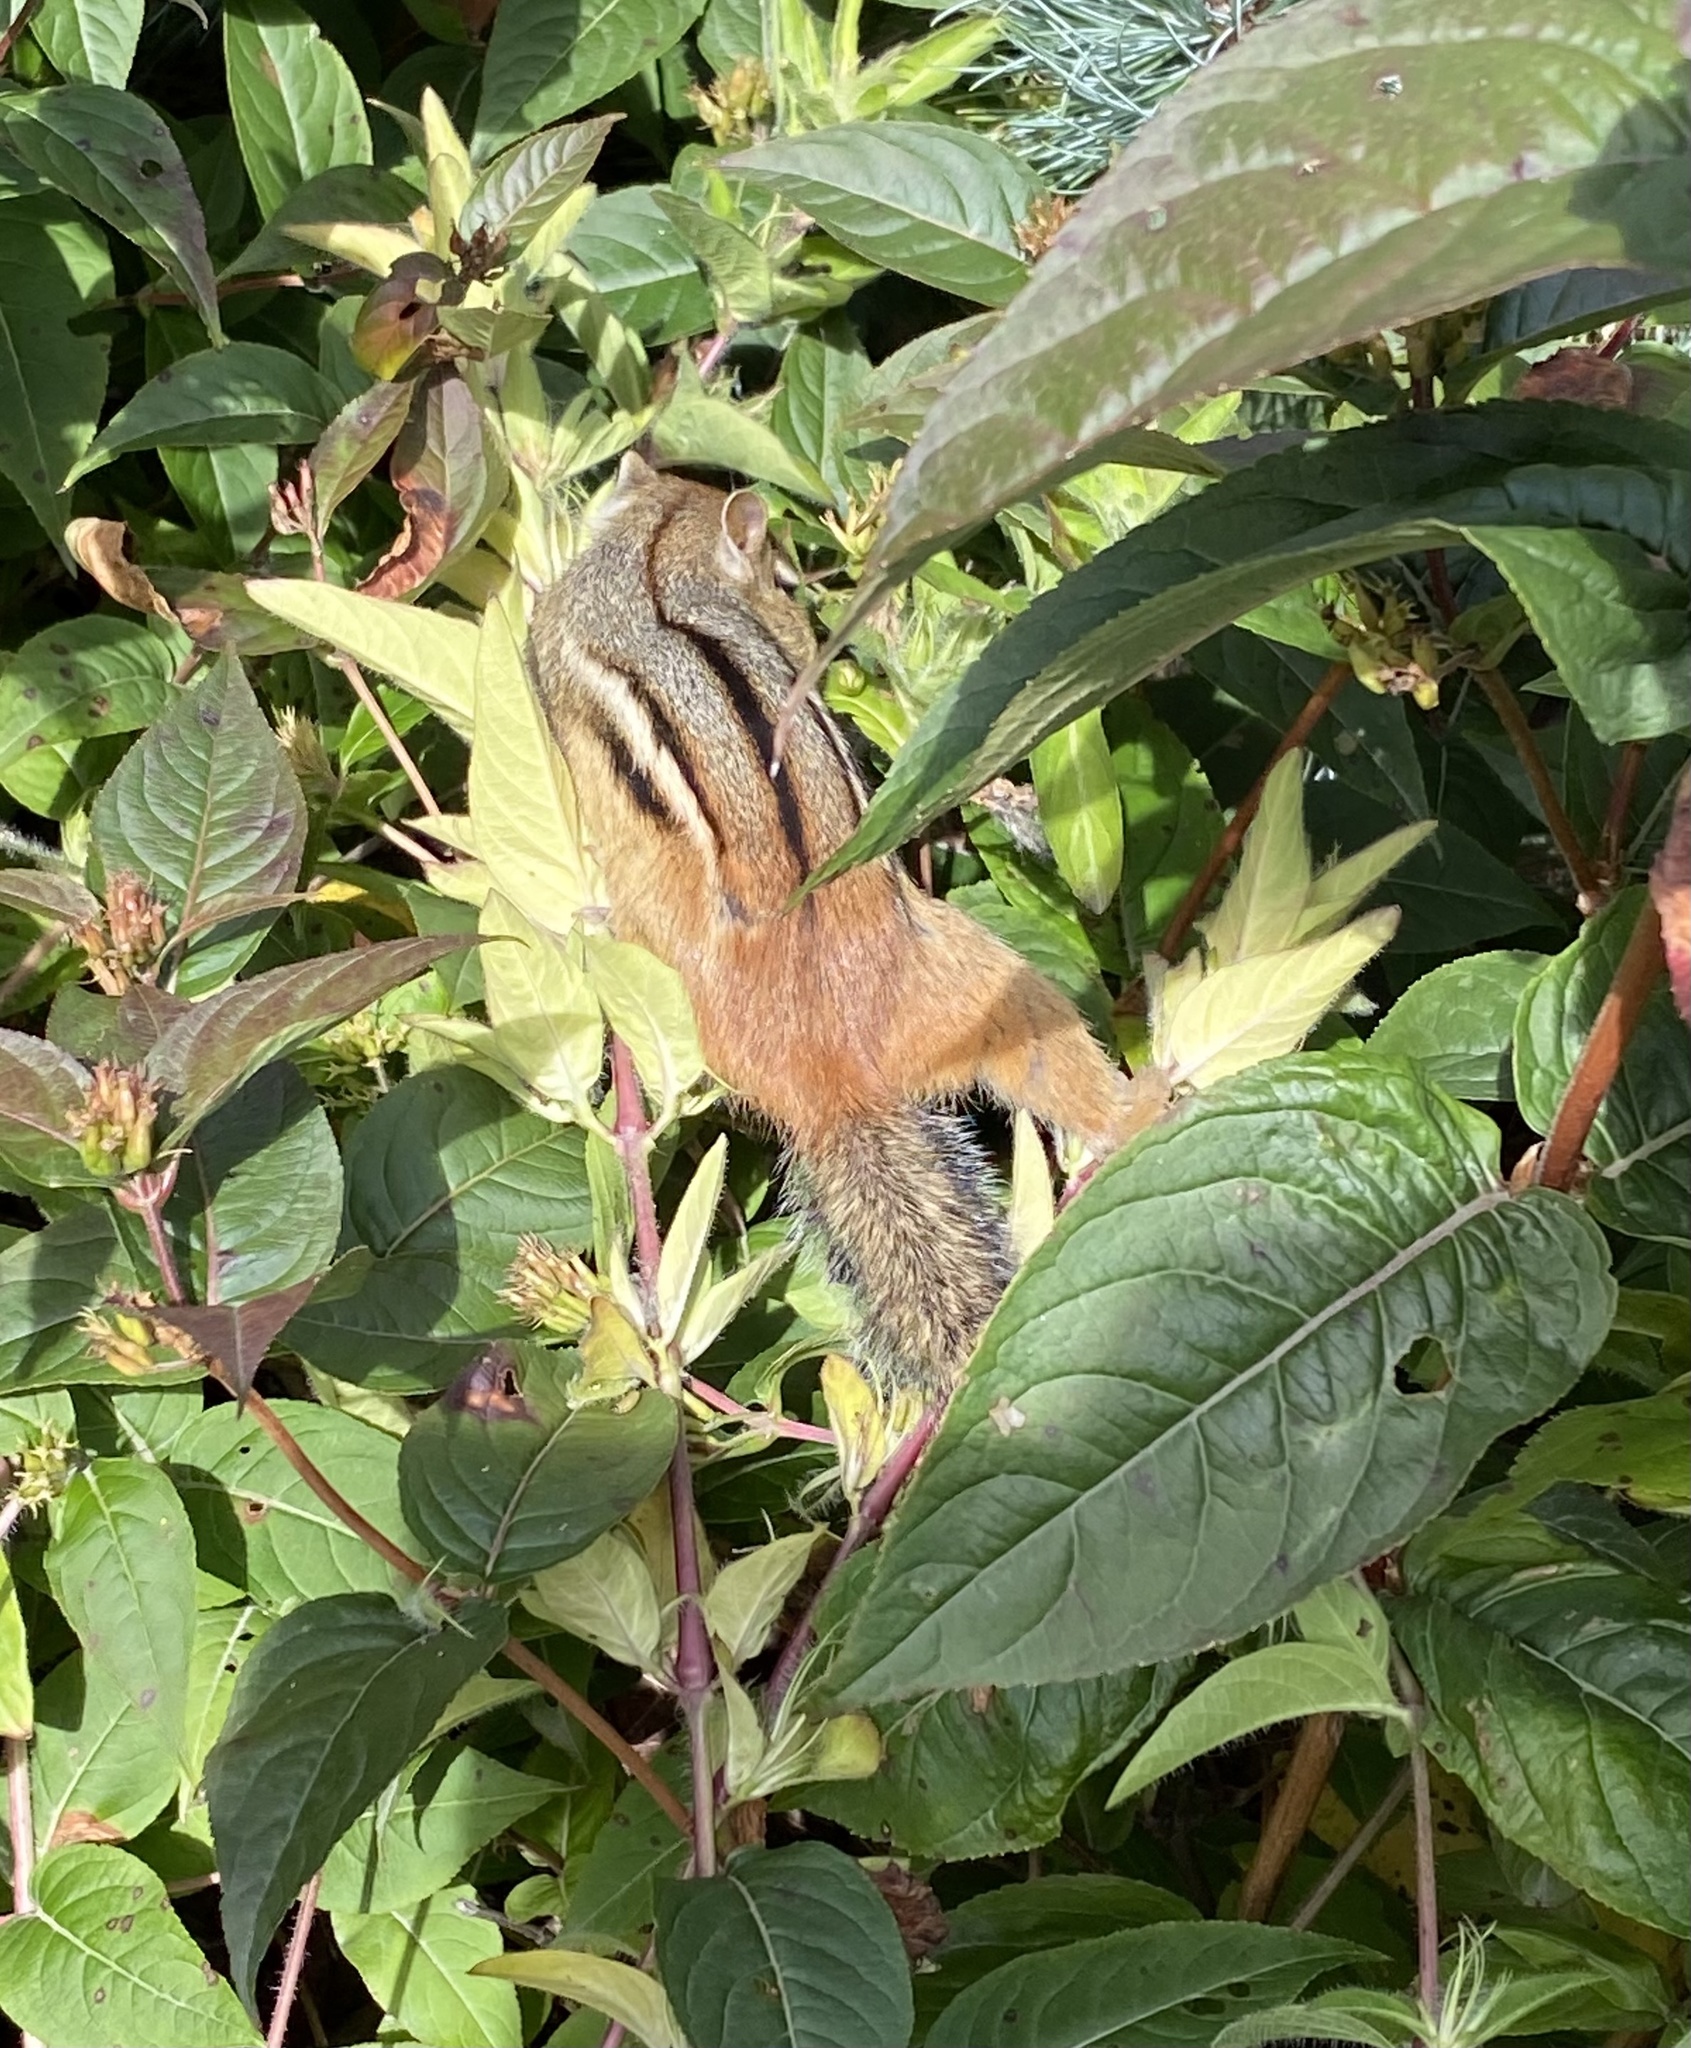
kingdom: Animalia
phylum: Chordata
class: Mammalia
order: Rodentia
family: Sciuridae
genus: Tamias
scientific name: Tamias striatus
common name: Eastern chipmunk
